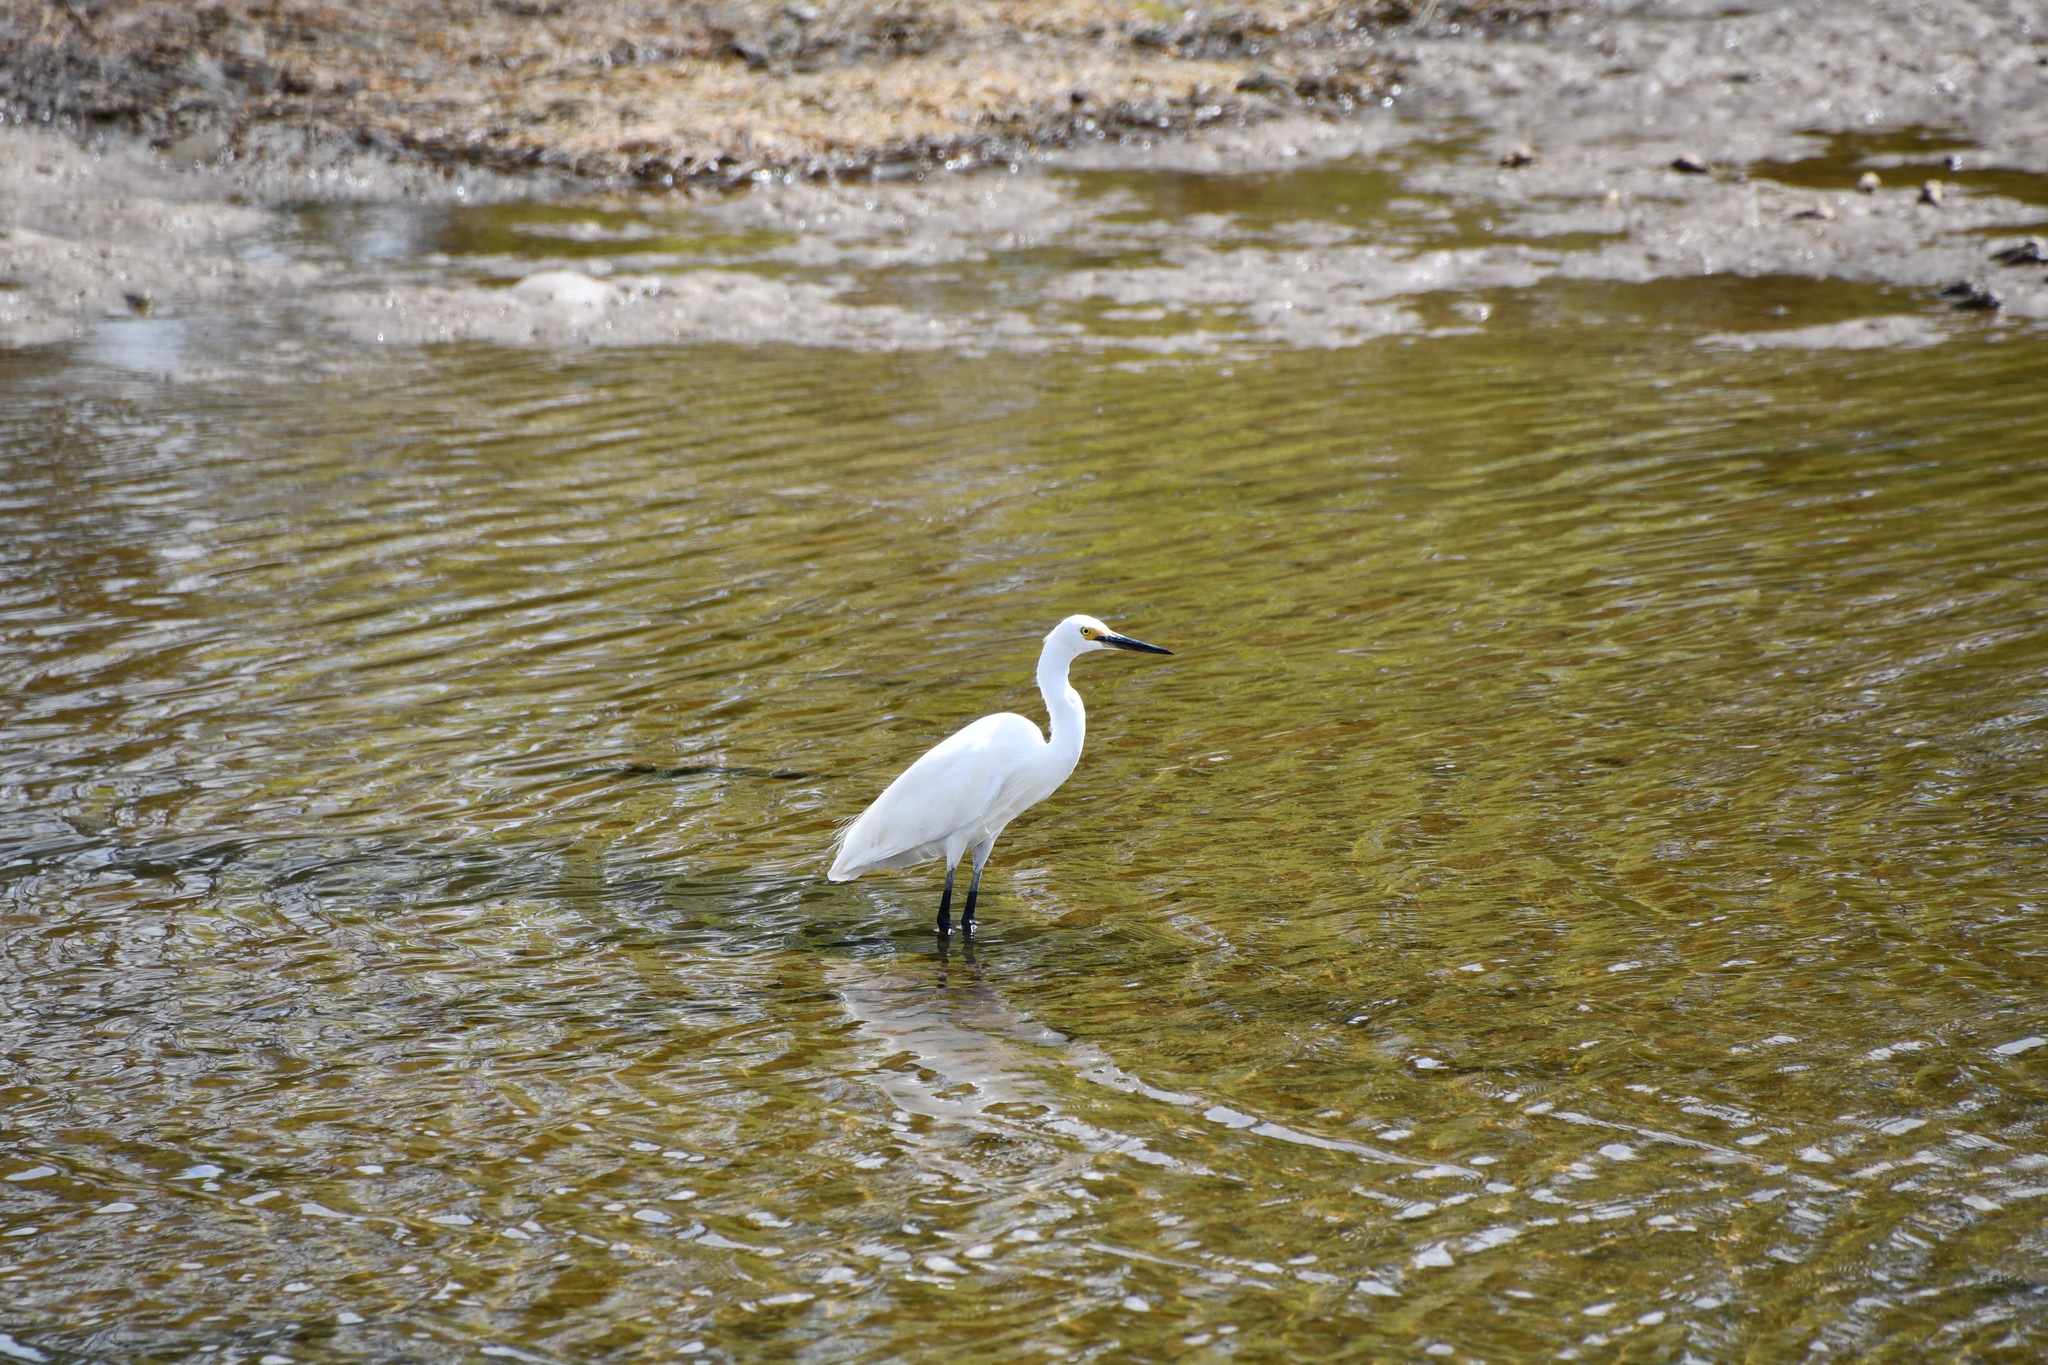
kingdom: Animalia
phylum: Chordata
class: Aves
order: Pelecaniformes
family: Ardeidae
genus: Egretta
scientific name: Egretta garzetta
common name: Little egret
